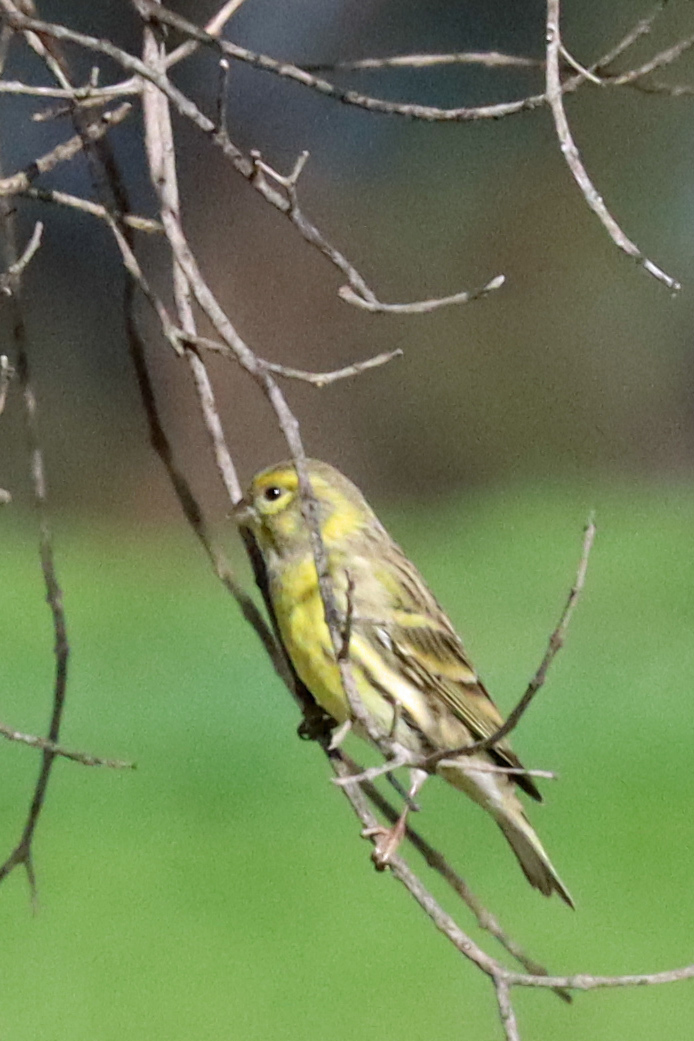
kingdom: Animalia
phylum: Chordata
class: Aves
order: Passeriformes
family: Fringillidae
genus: Serinus
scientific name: Serinus serinus
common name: European serin
